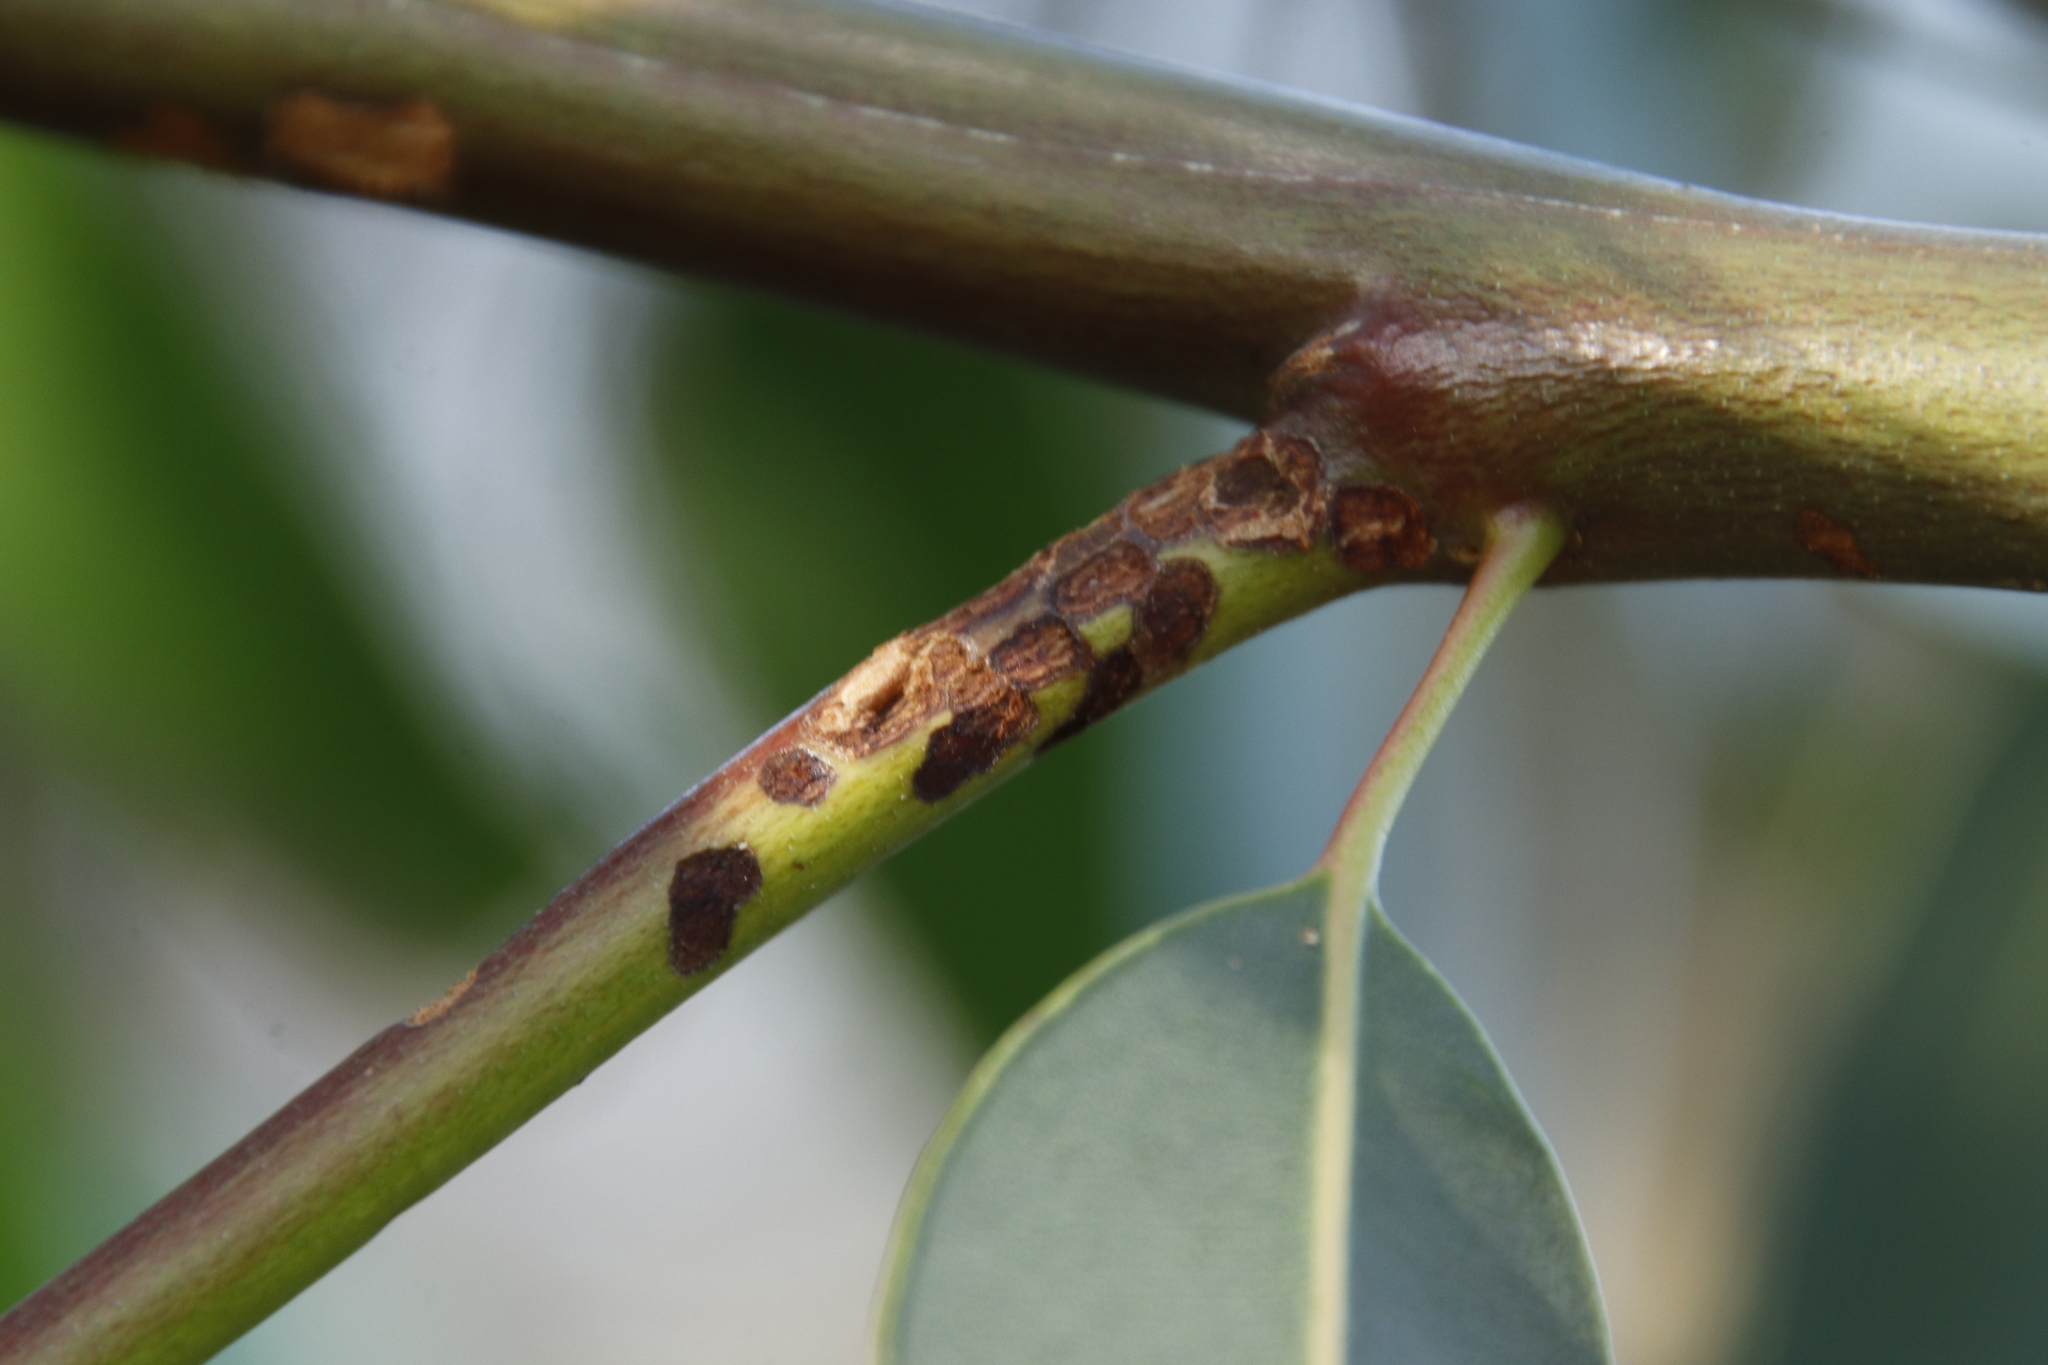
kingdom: Animalia
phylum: Arthropoda
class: Insecta
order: Coleoptera
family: Curculionidae
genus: Gonipterus
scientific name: Gonipterus
